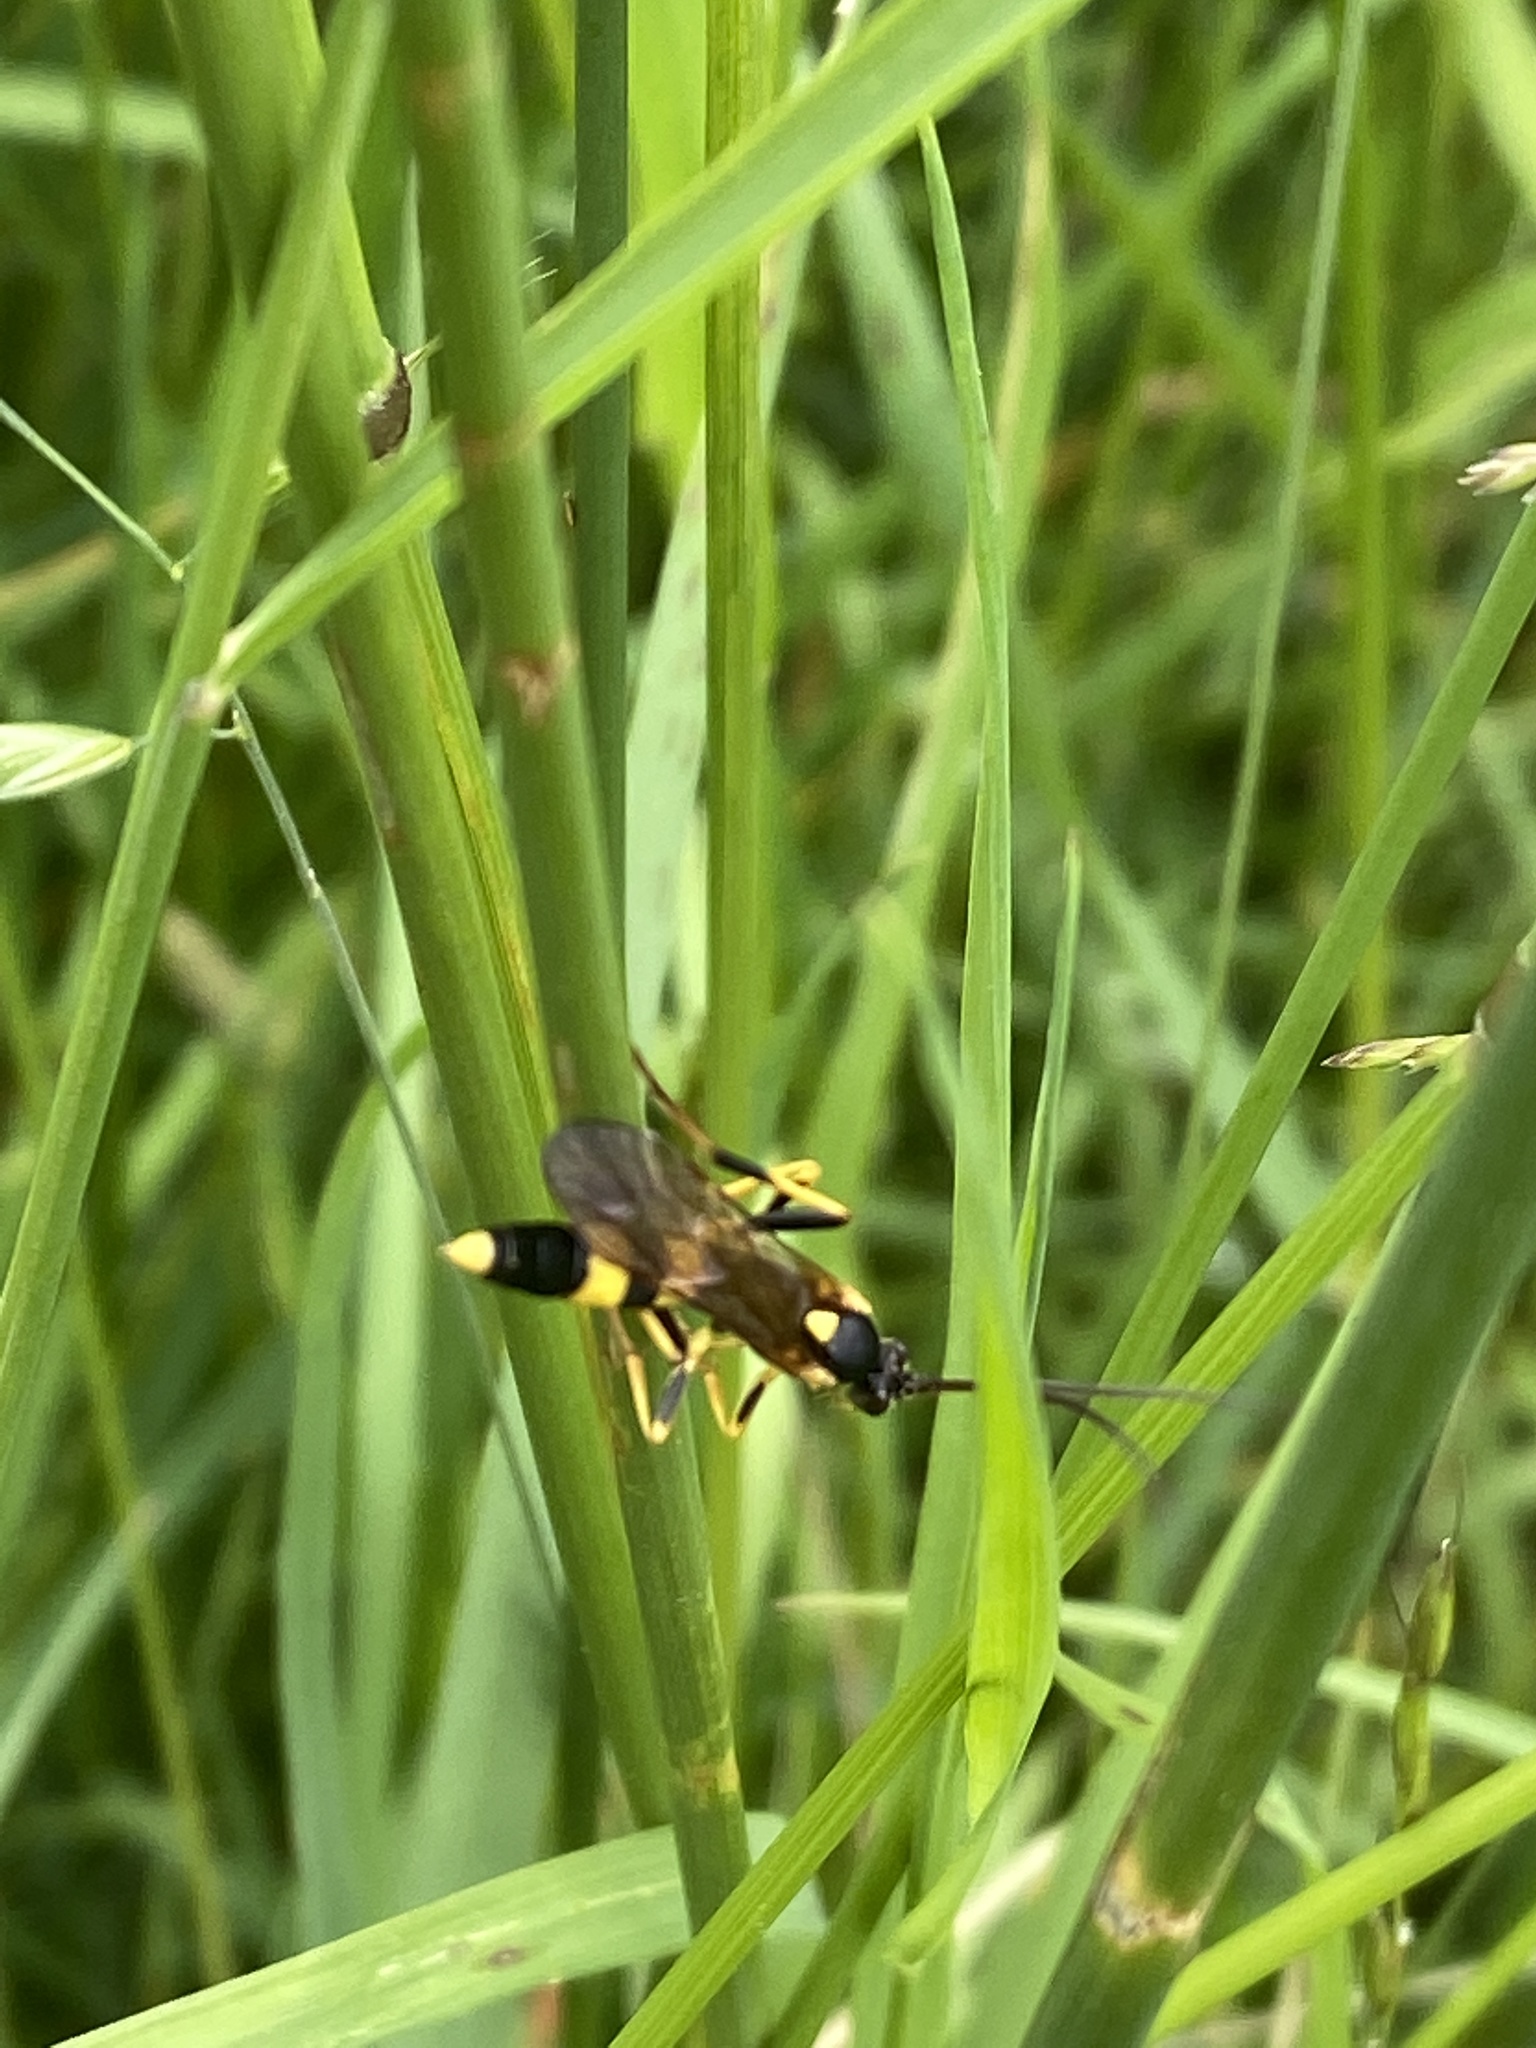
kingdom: Animalia
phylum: Arthropoda
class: Insecta
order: Hymenoptera
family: Ichneumonidae
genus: Amblyteles
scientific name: Amblyteles armatorius
